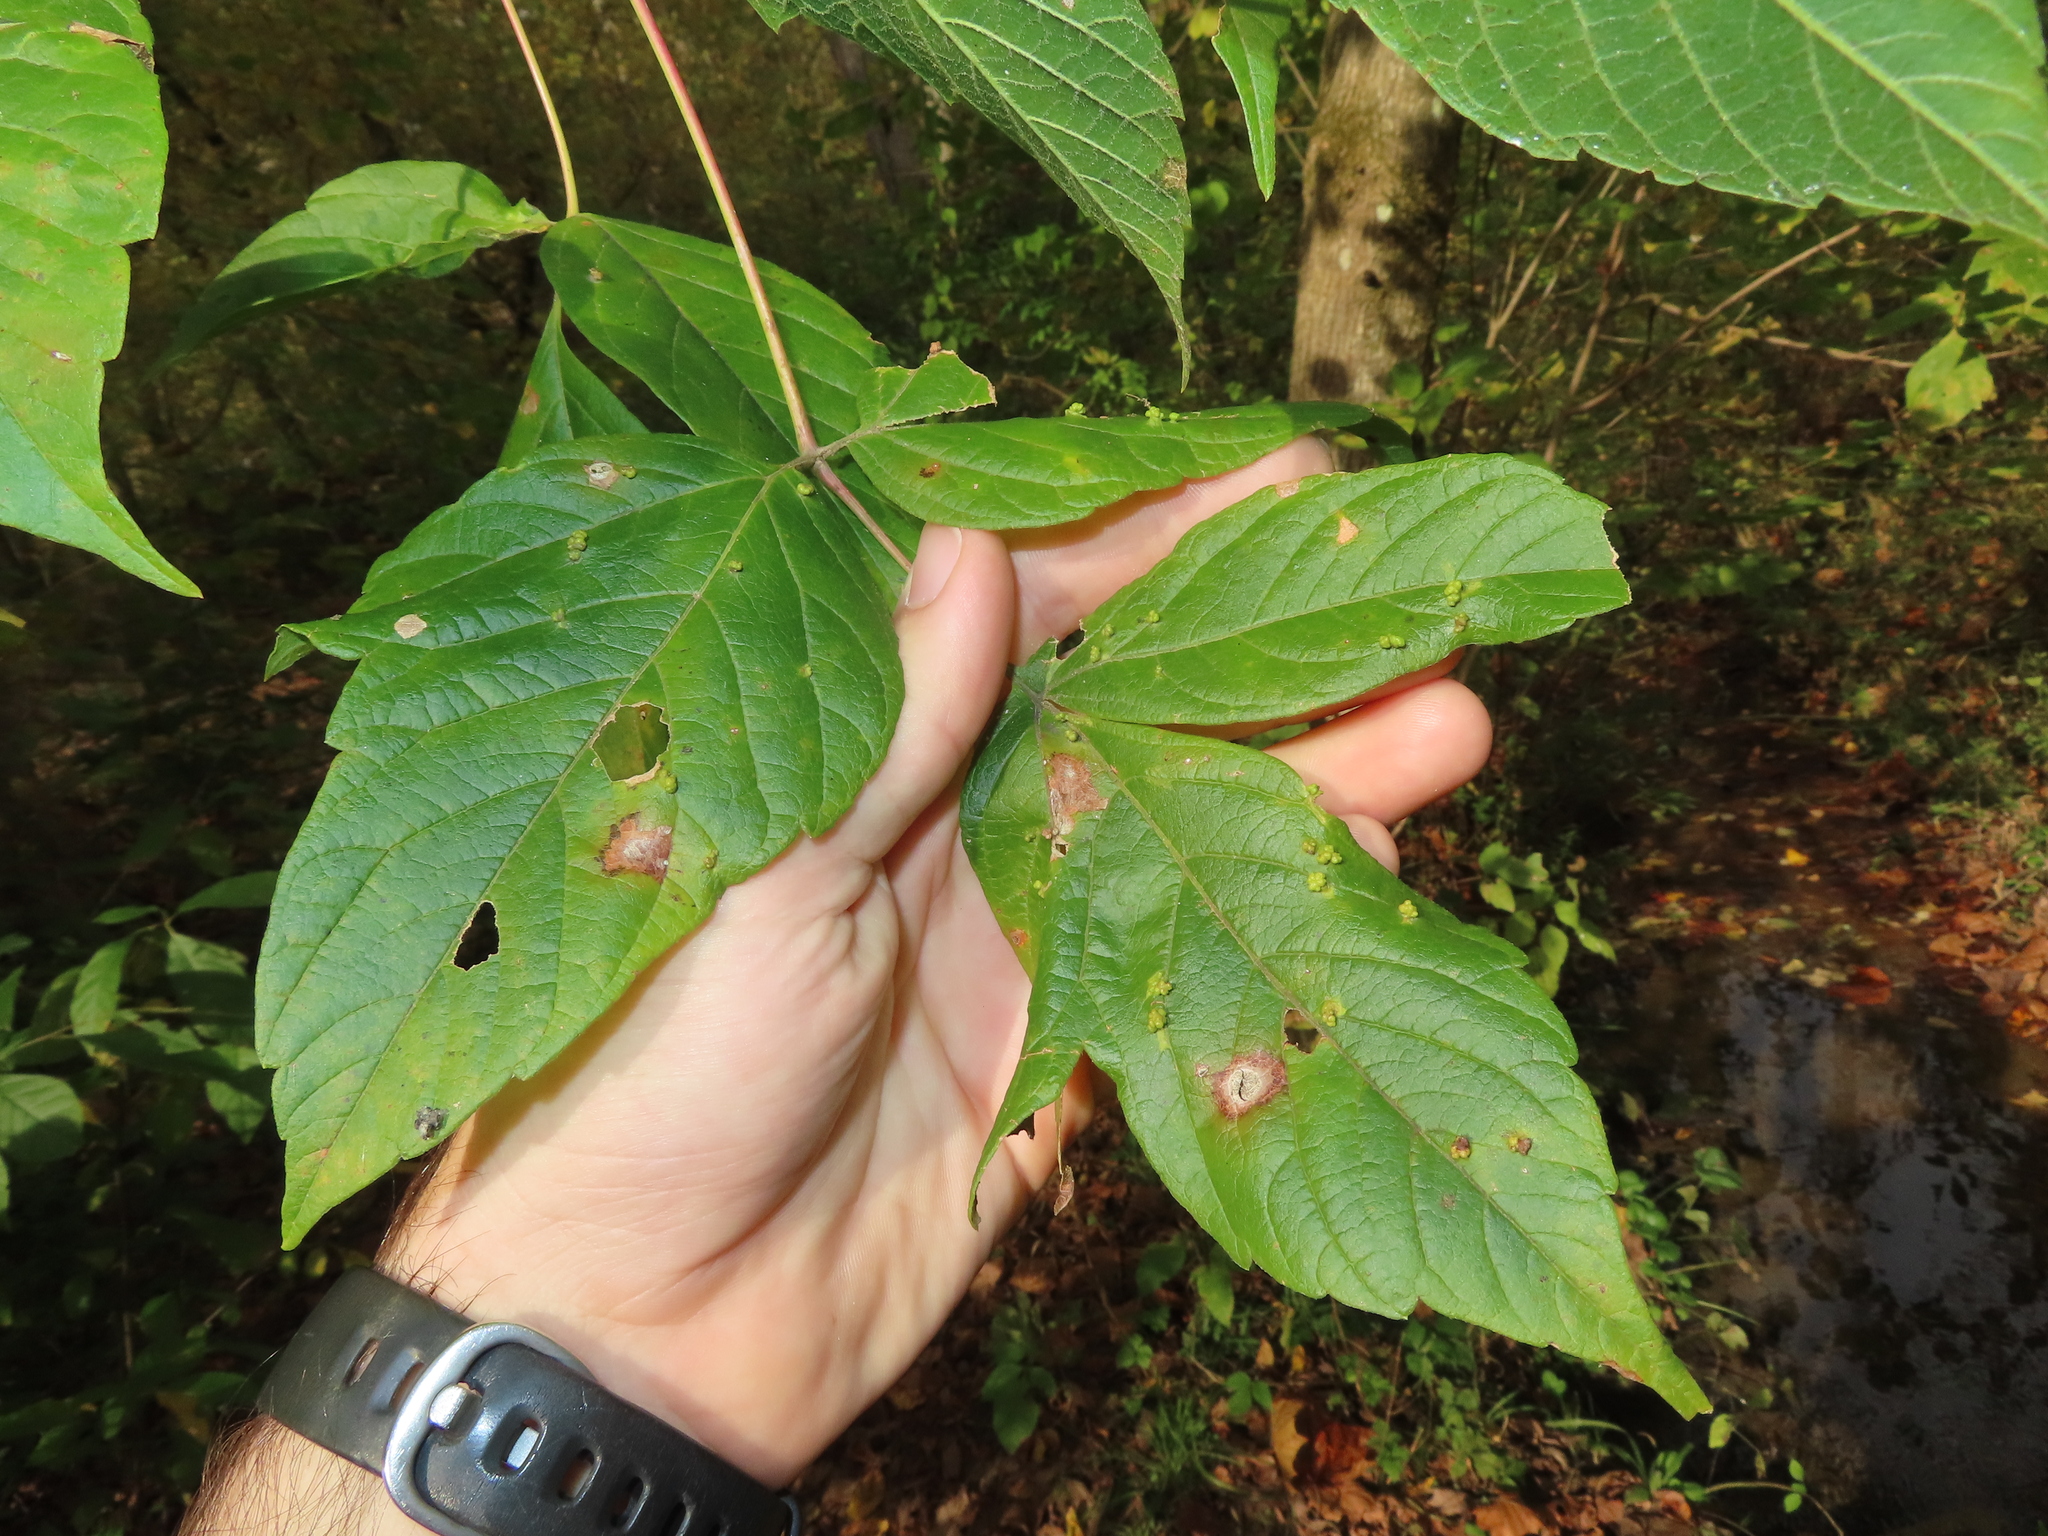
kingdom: Plantae
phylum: Tracheophyta
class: Magnoliopsida
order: Sapindales
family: Sapindaceae
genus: Acer
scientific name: Acer negundo
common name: Ashleaf maple
